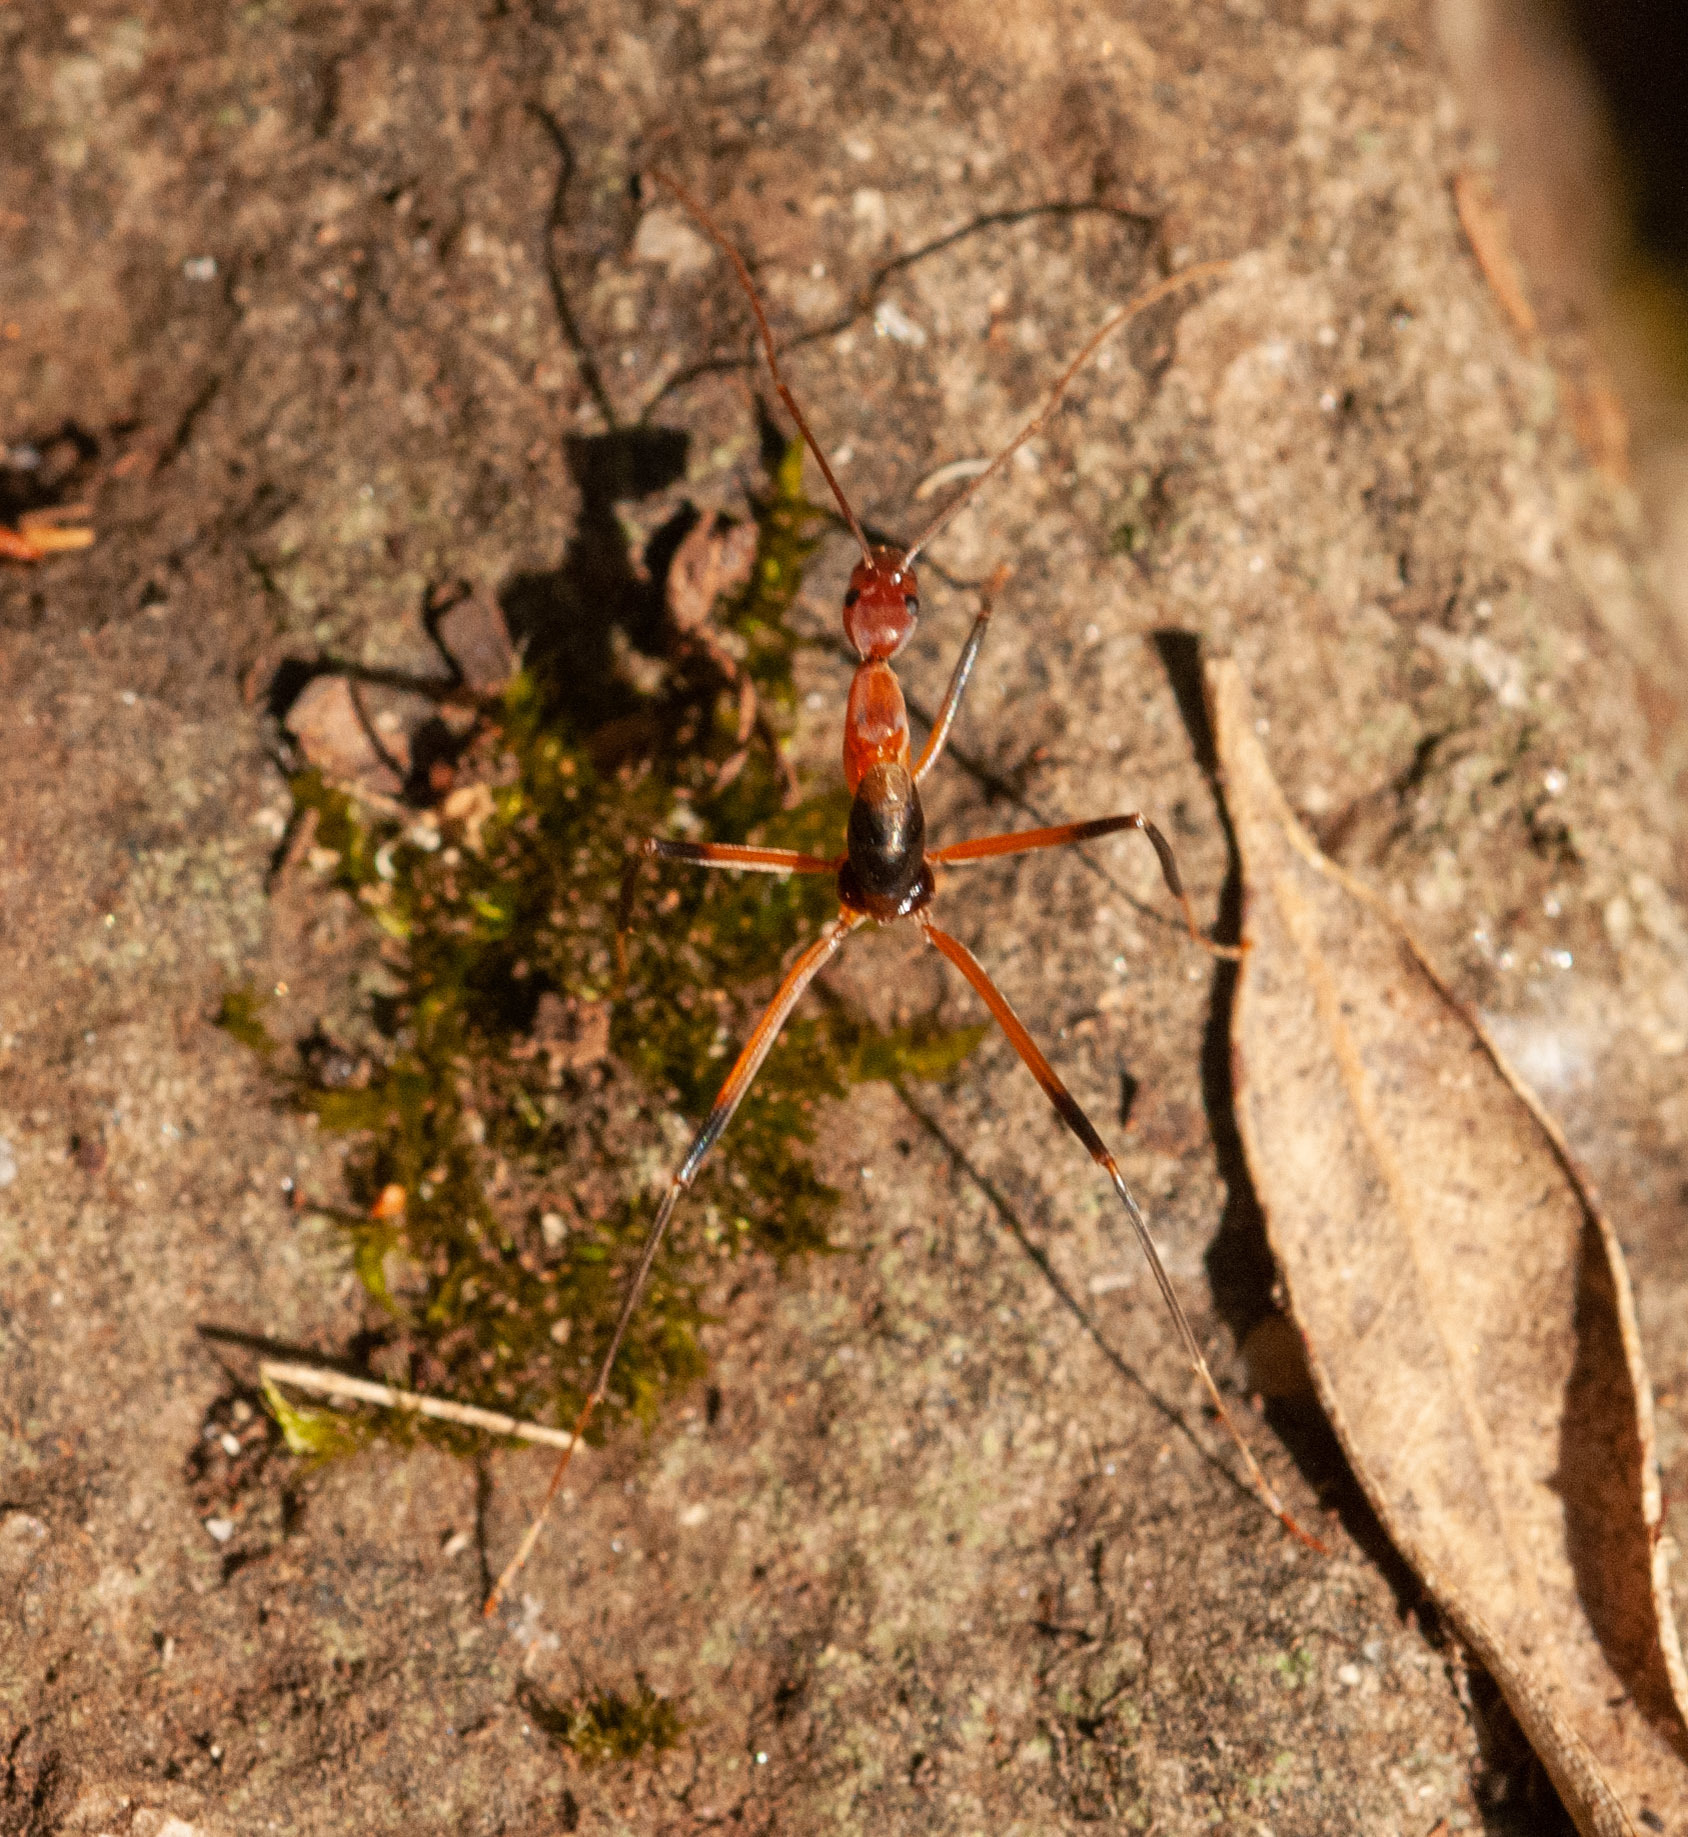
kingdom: Animalia
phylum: Arthropoda
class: Insecta
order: Hymenoptera
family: Formicidae
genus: Leptomyrmex
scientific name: Leptomyrmex cnemidatus
